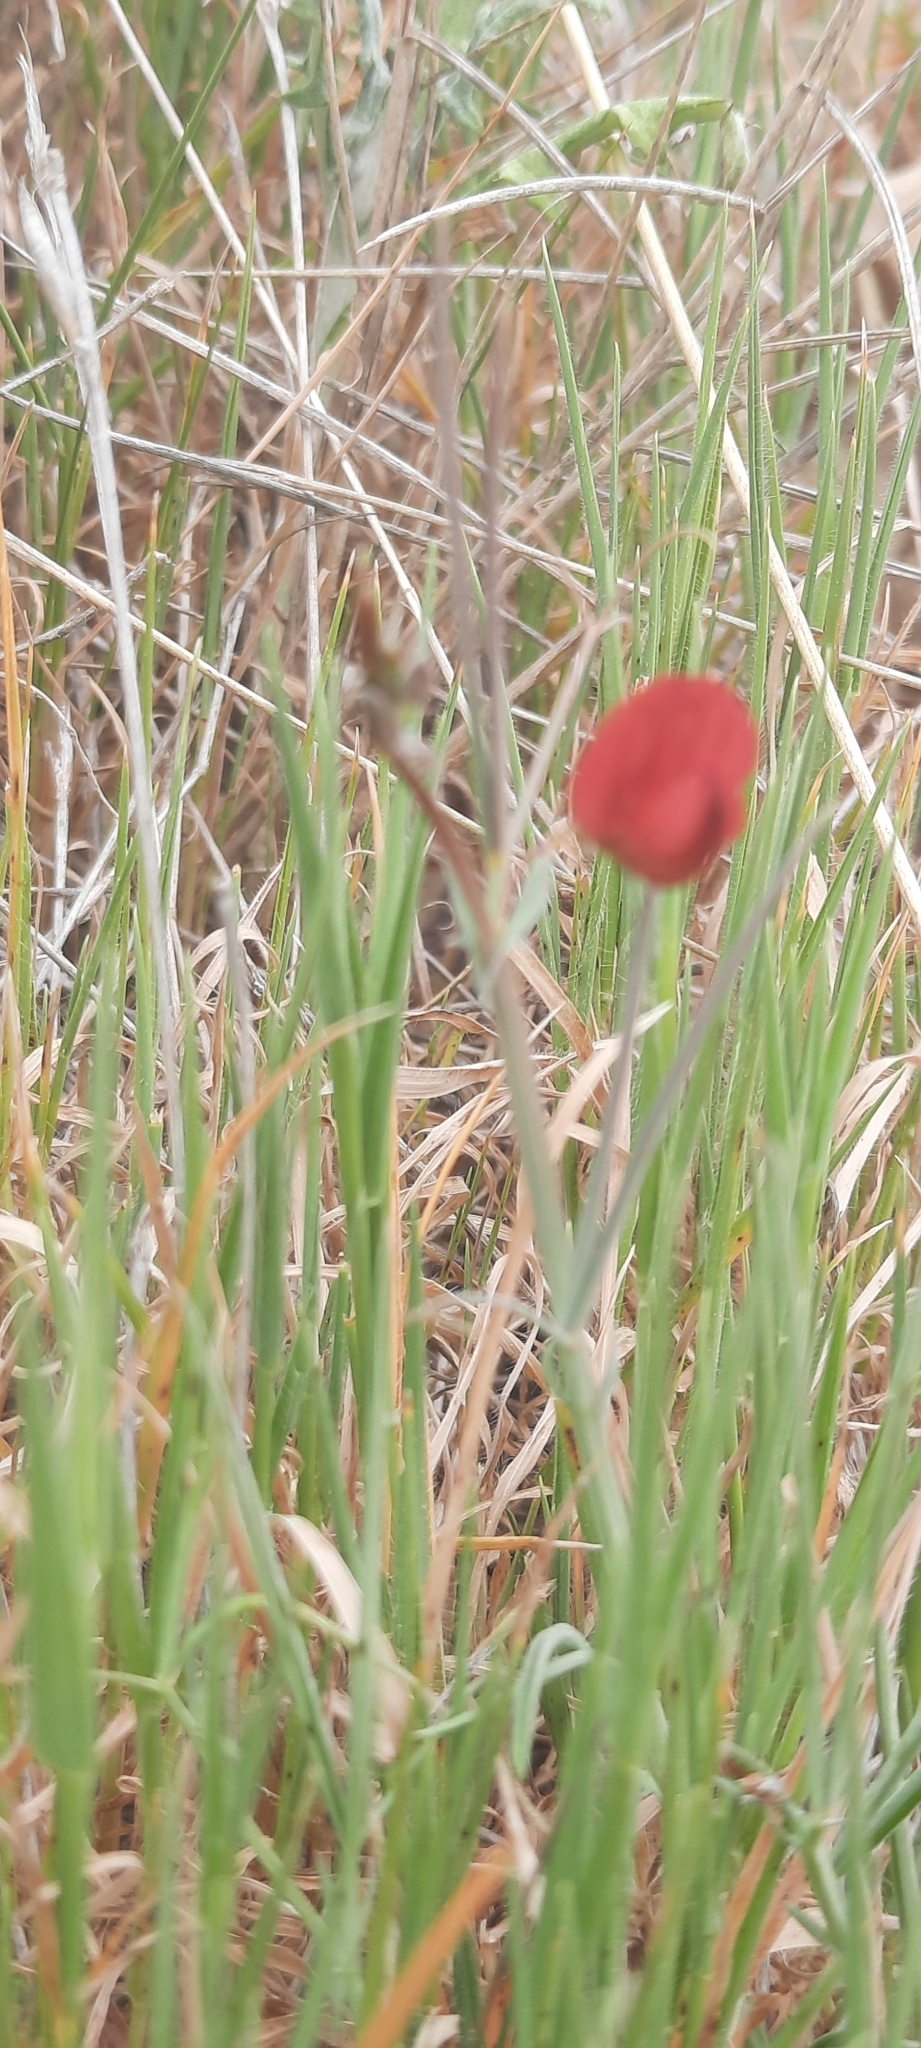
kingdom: Plantae
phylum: Tracheophyta
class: Magnoliopsida
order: Fabales
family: Fabaceae
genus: Lathyrus
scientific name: Lathyrus cicera
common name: Red vetchling
